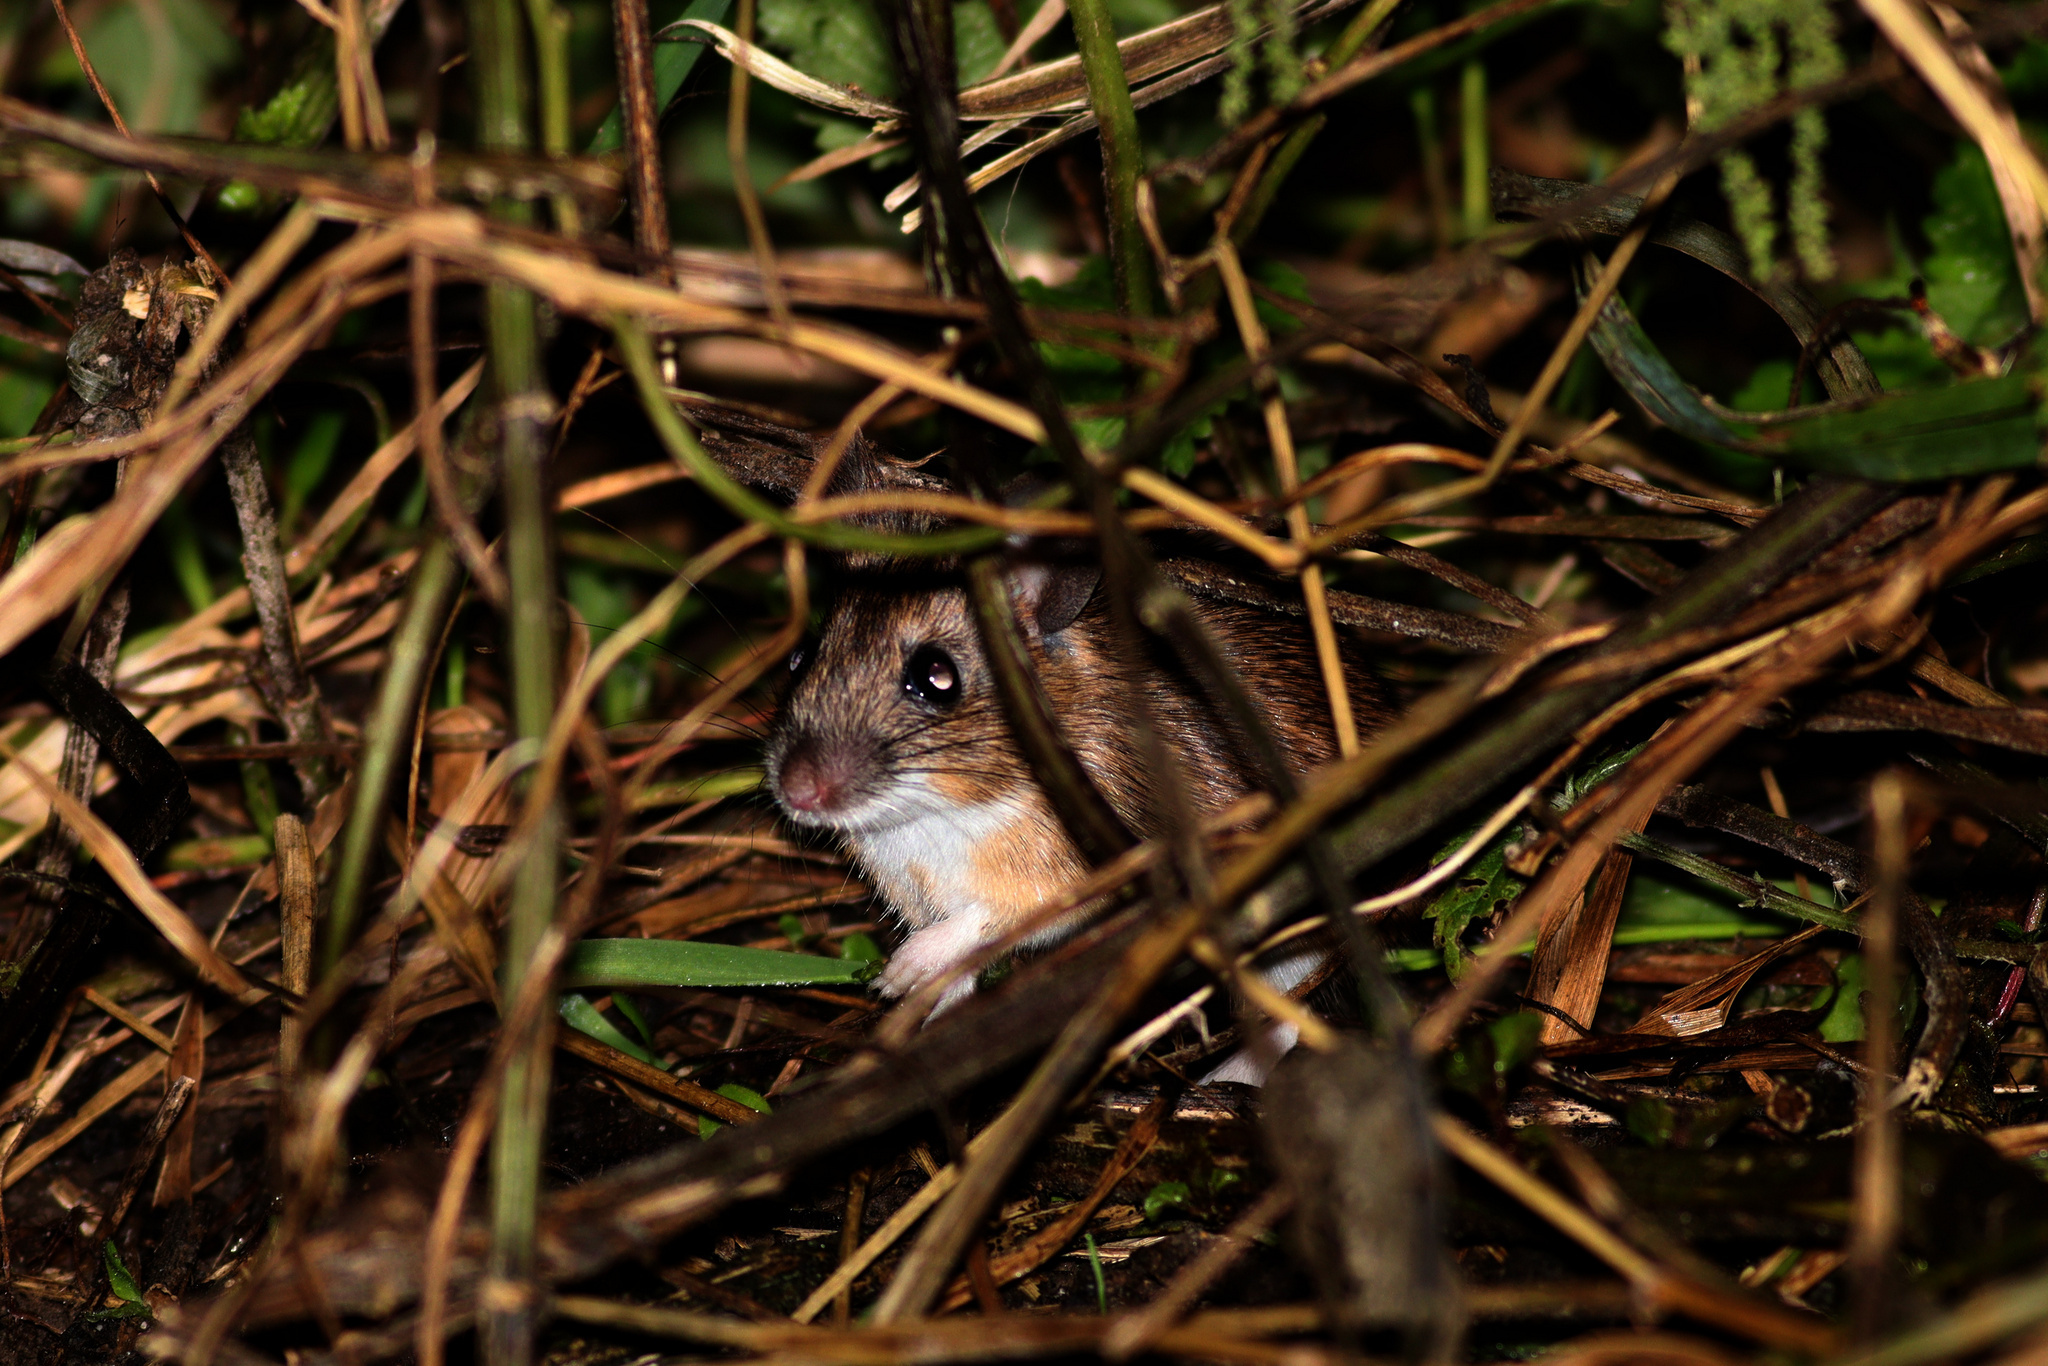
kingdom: Animalia
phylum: Chordata
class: Mammalia
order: Rodentia
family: Muridae
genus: Apodemus
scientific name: Apodemus sylvaticus
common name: Wood mouse
